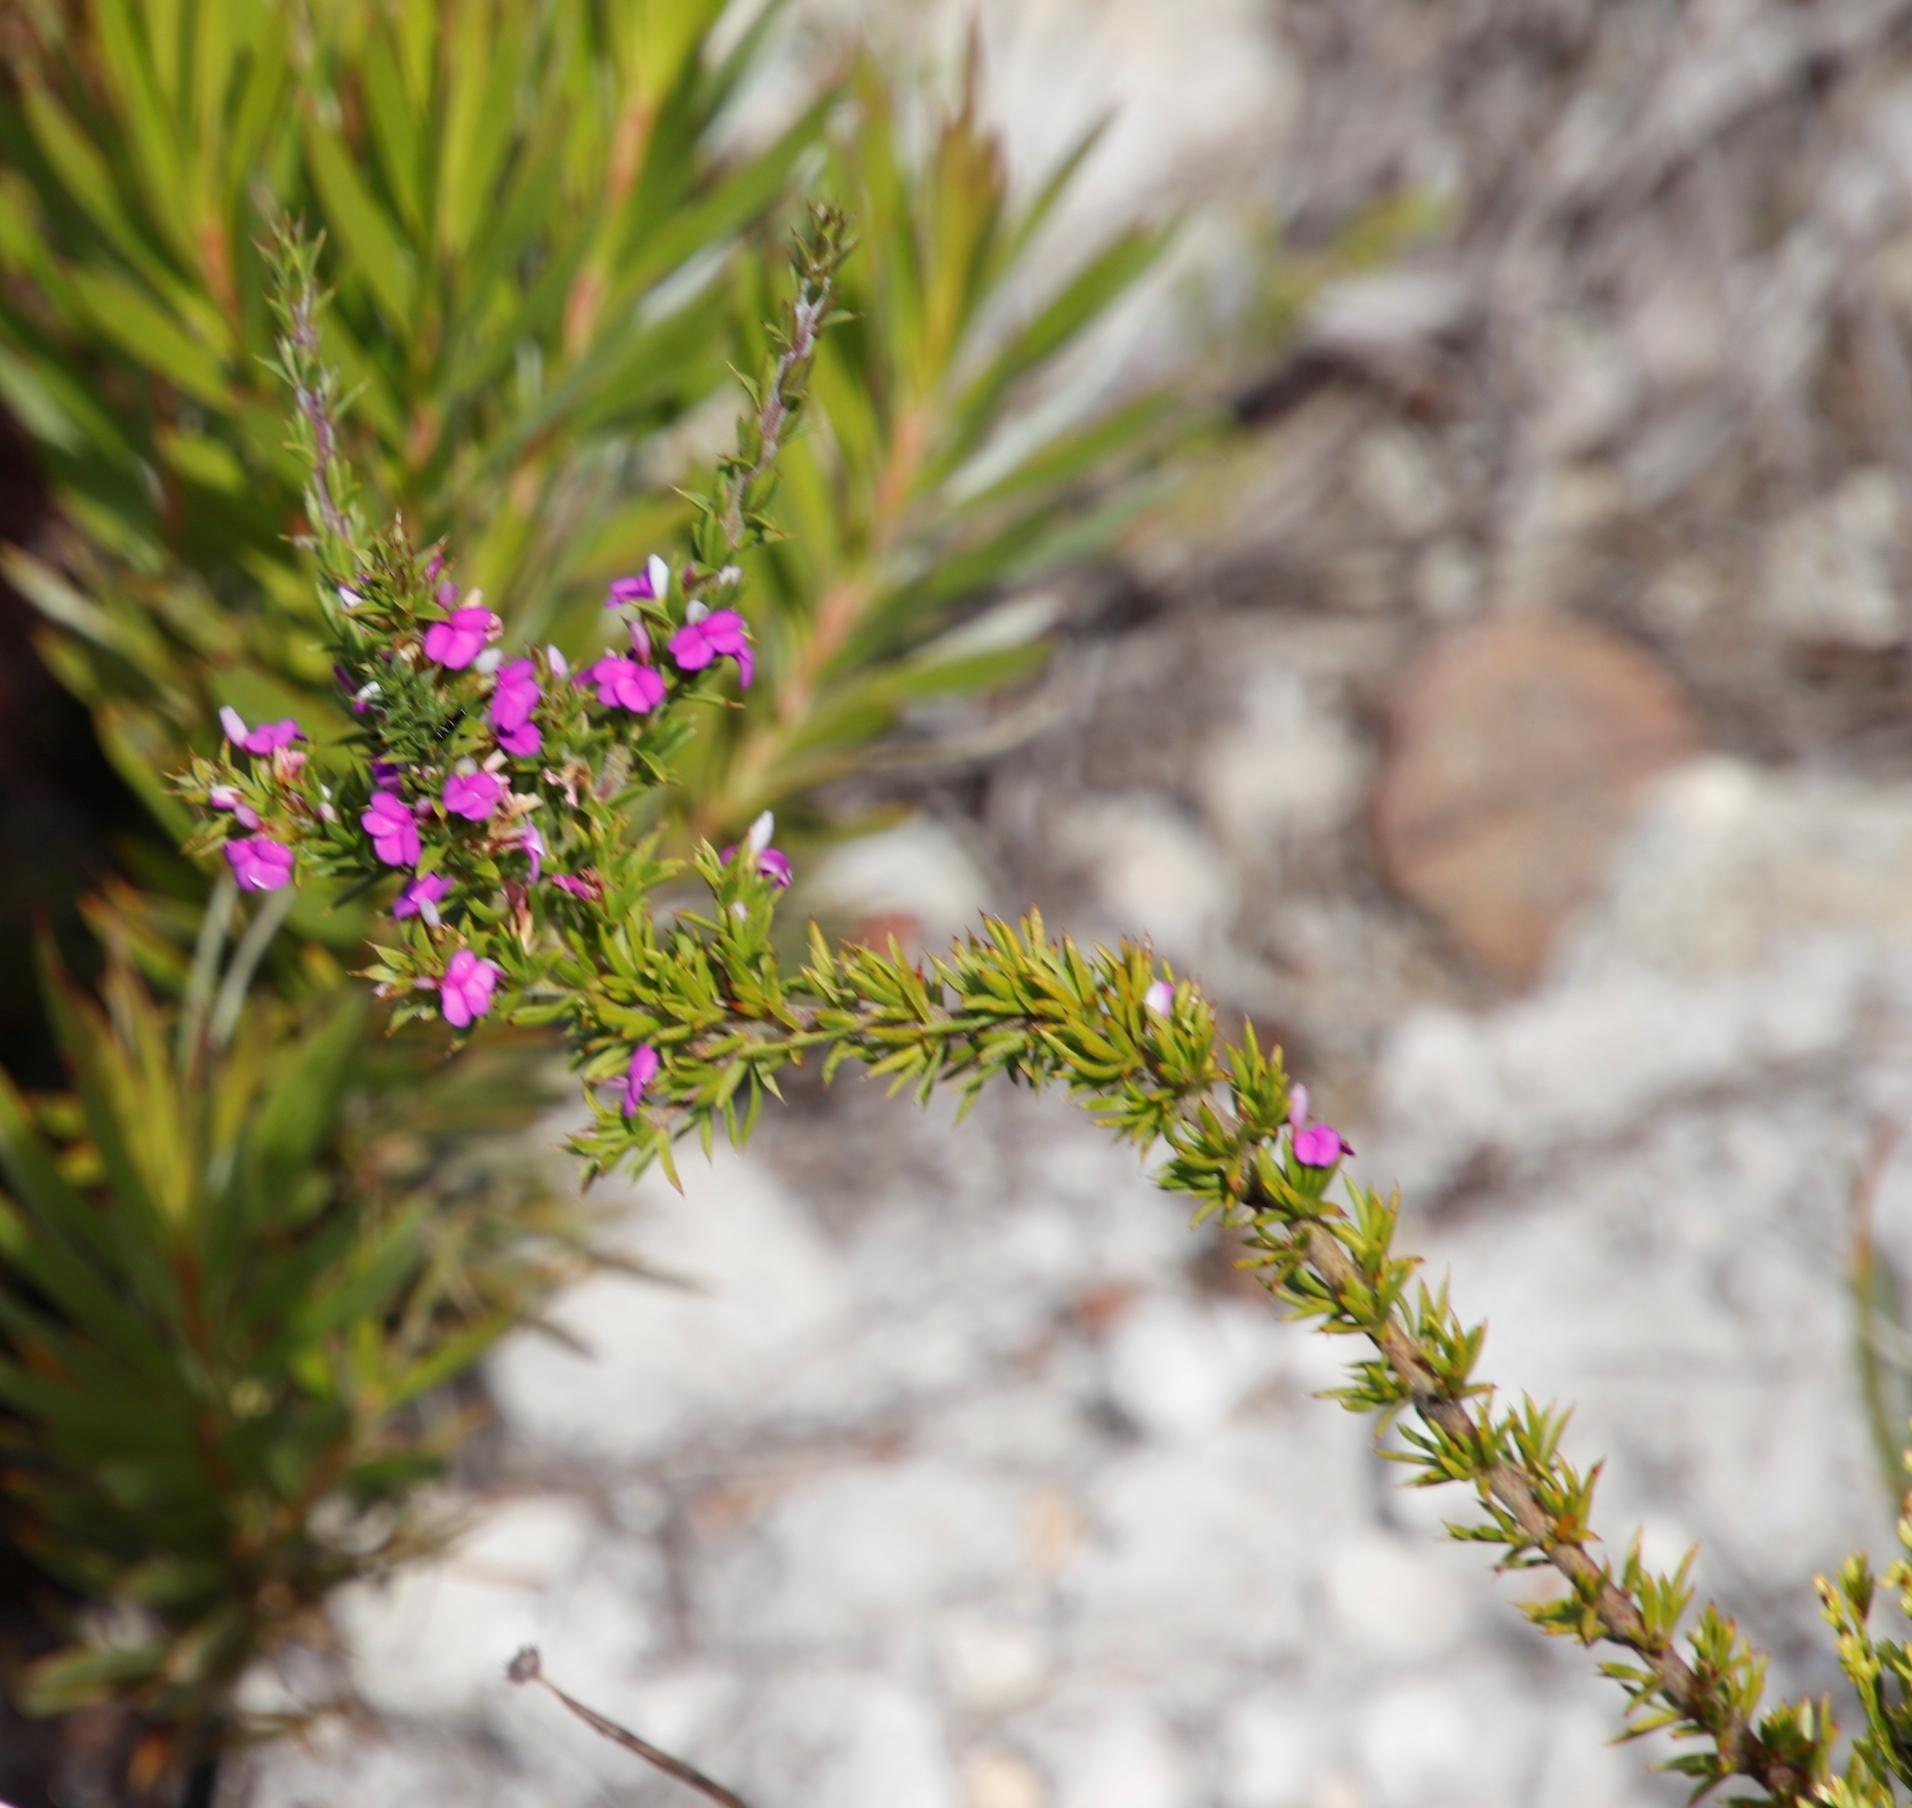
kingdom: Plantae
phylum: Tracheophyta
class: Magnoliopsida
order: Fabales
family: Polygalaceae
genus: Muraltia
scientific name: Muraltia heisteria
